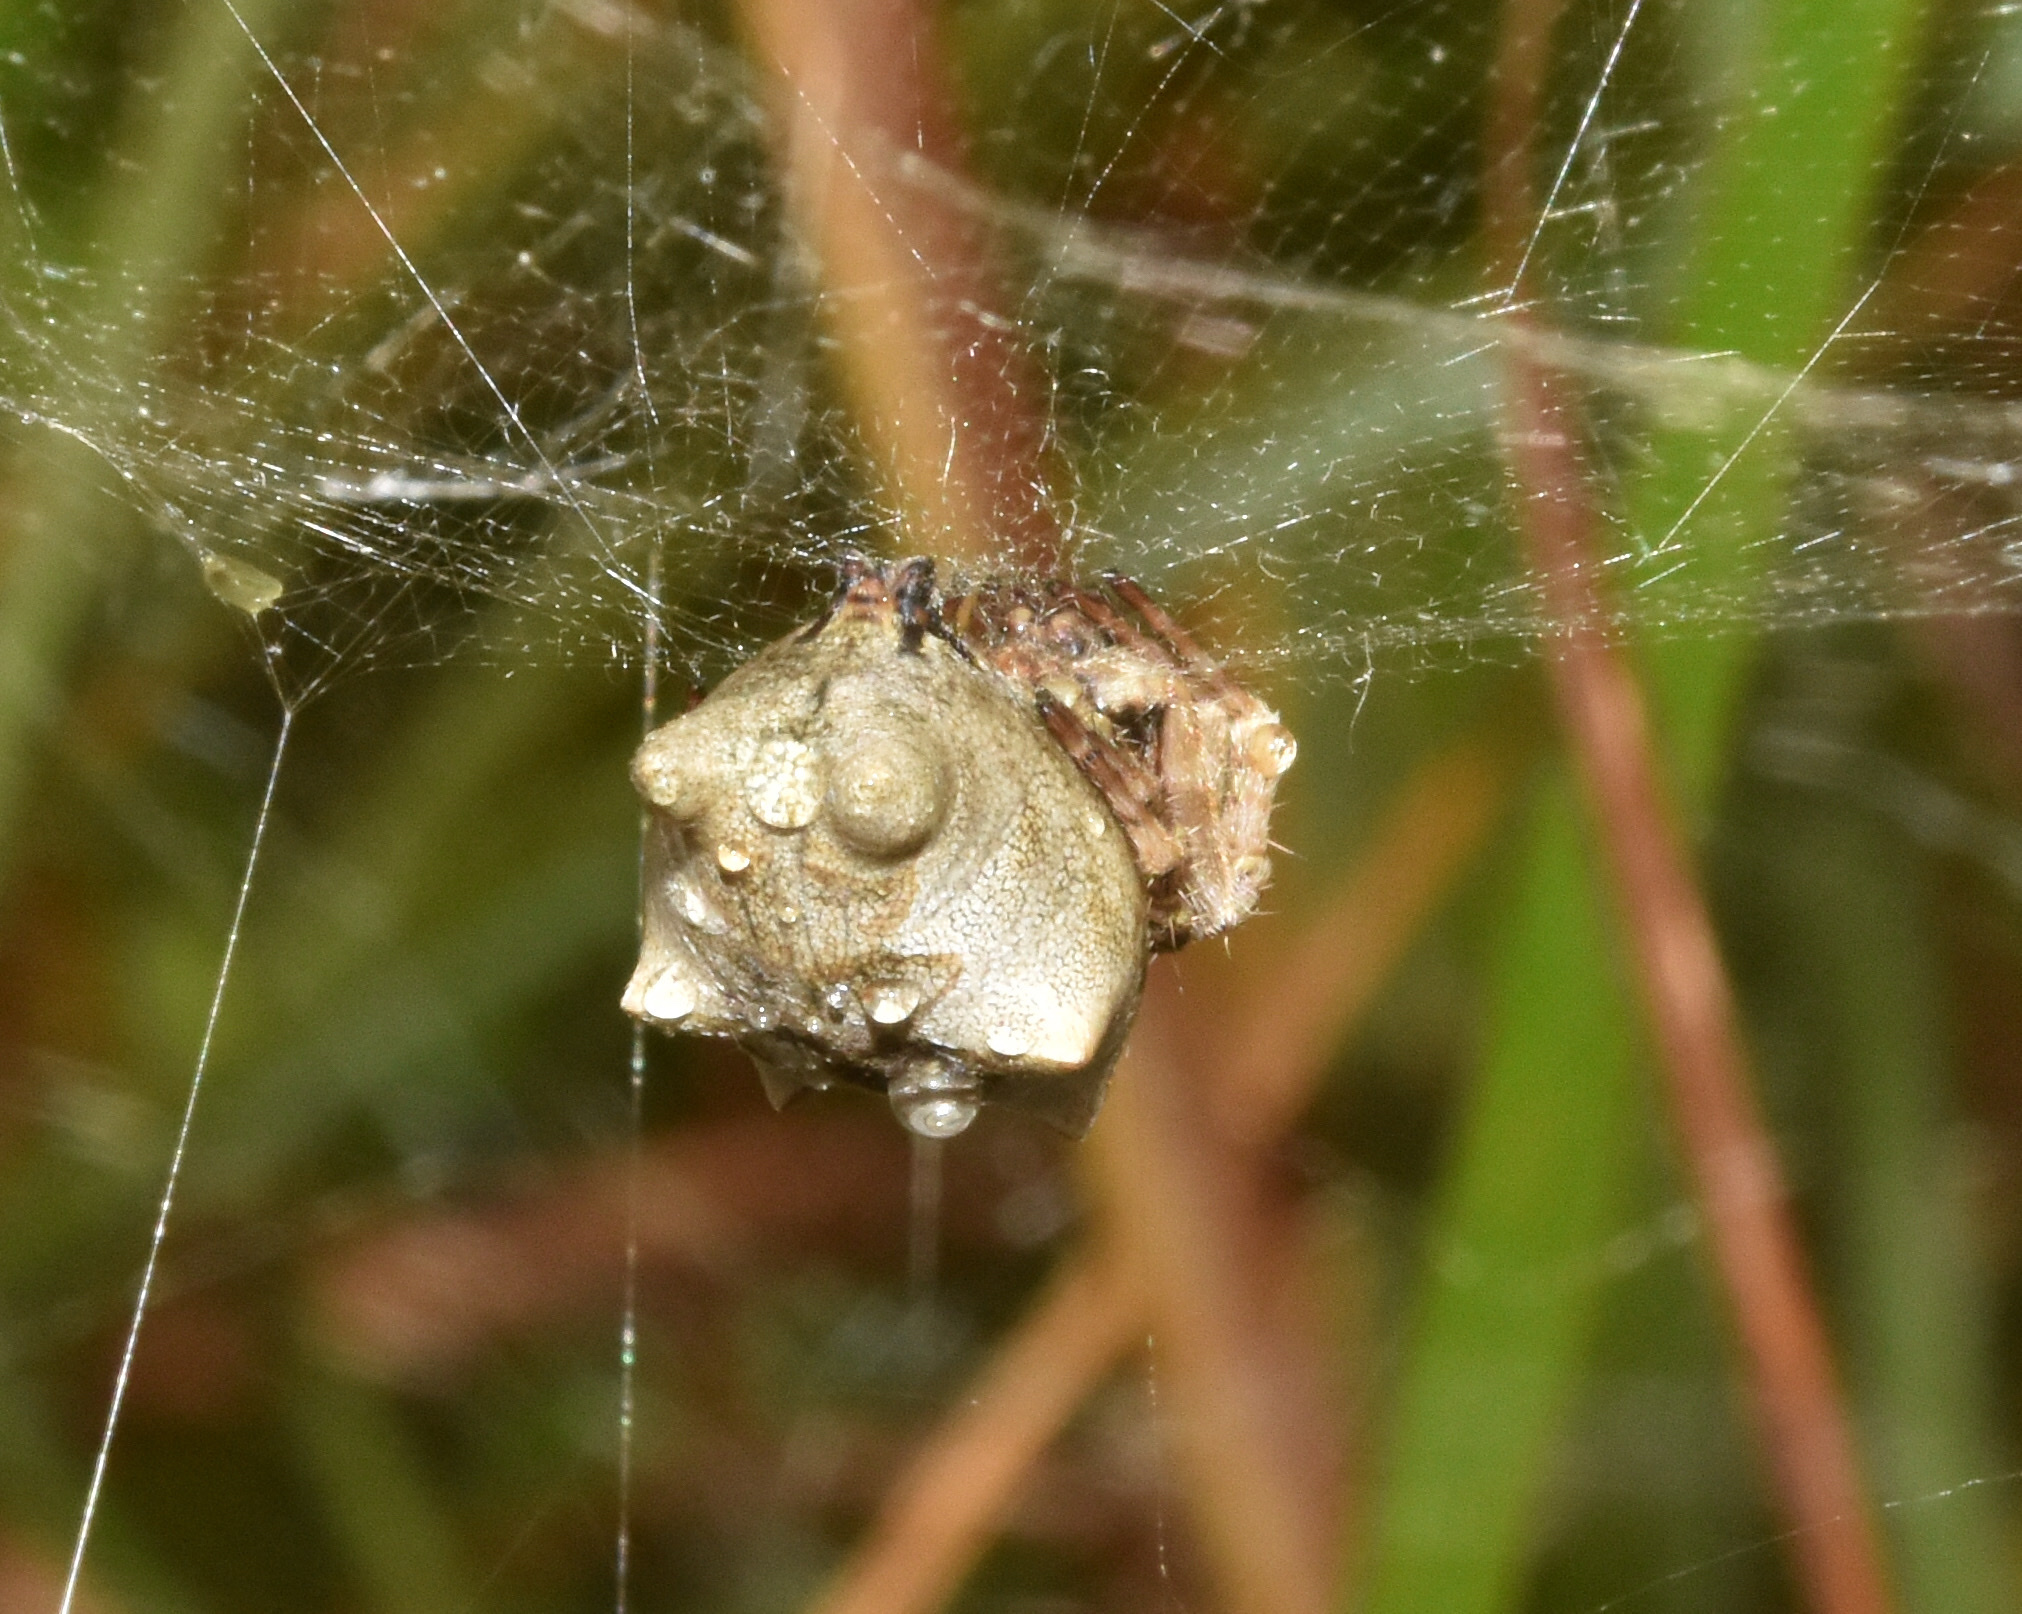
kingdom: Animalia
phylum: Arthropoda
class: Arachnida
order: Araneae
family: Araneidae
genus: Cyrtophora
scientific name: Cyrtophora citricola
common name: Orb weavers
